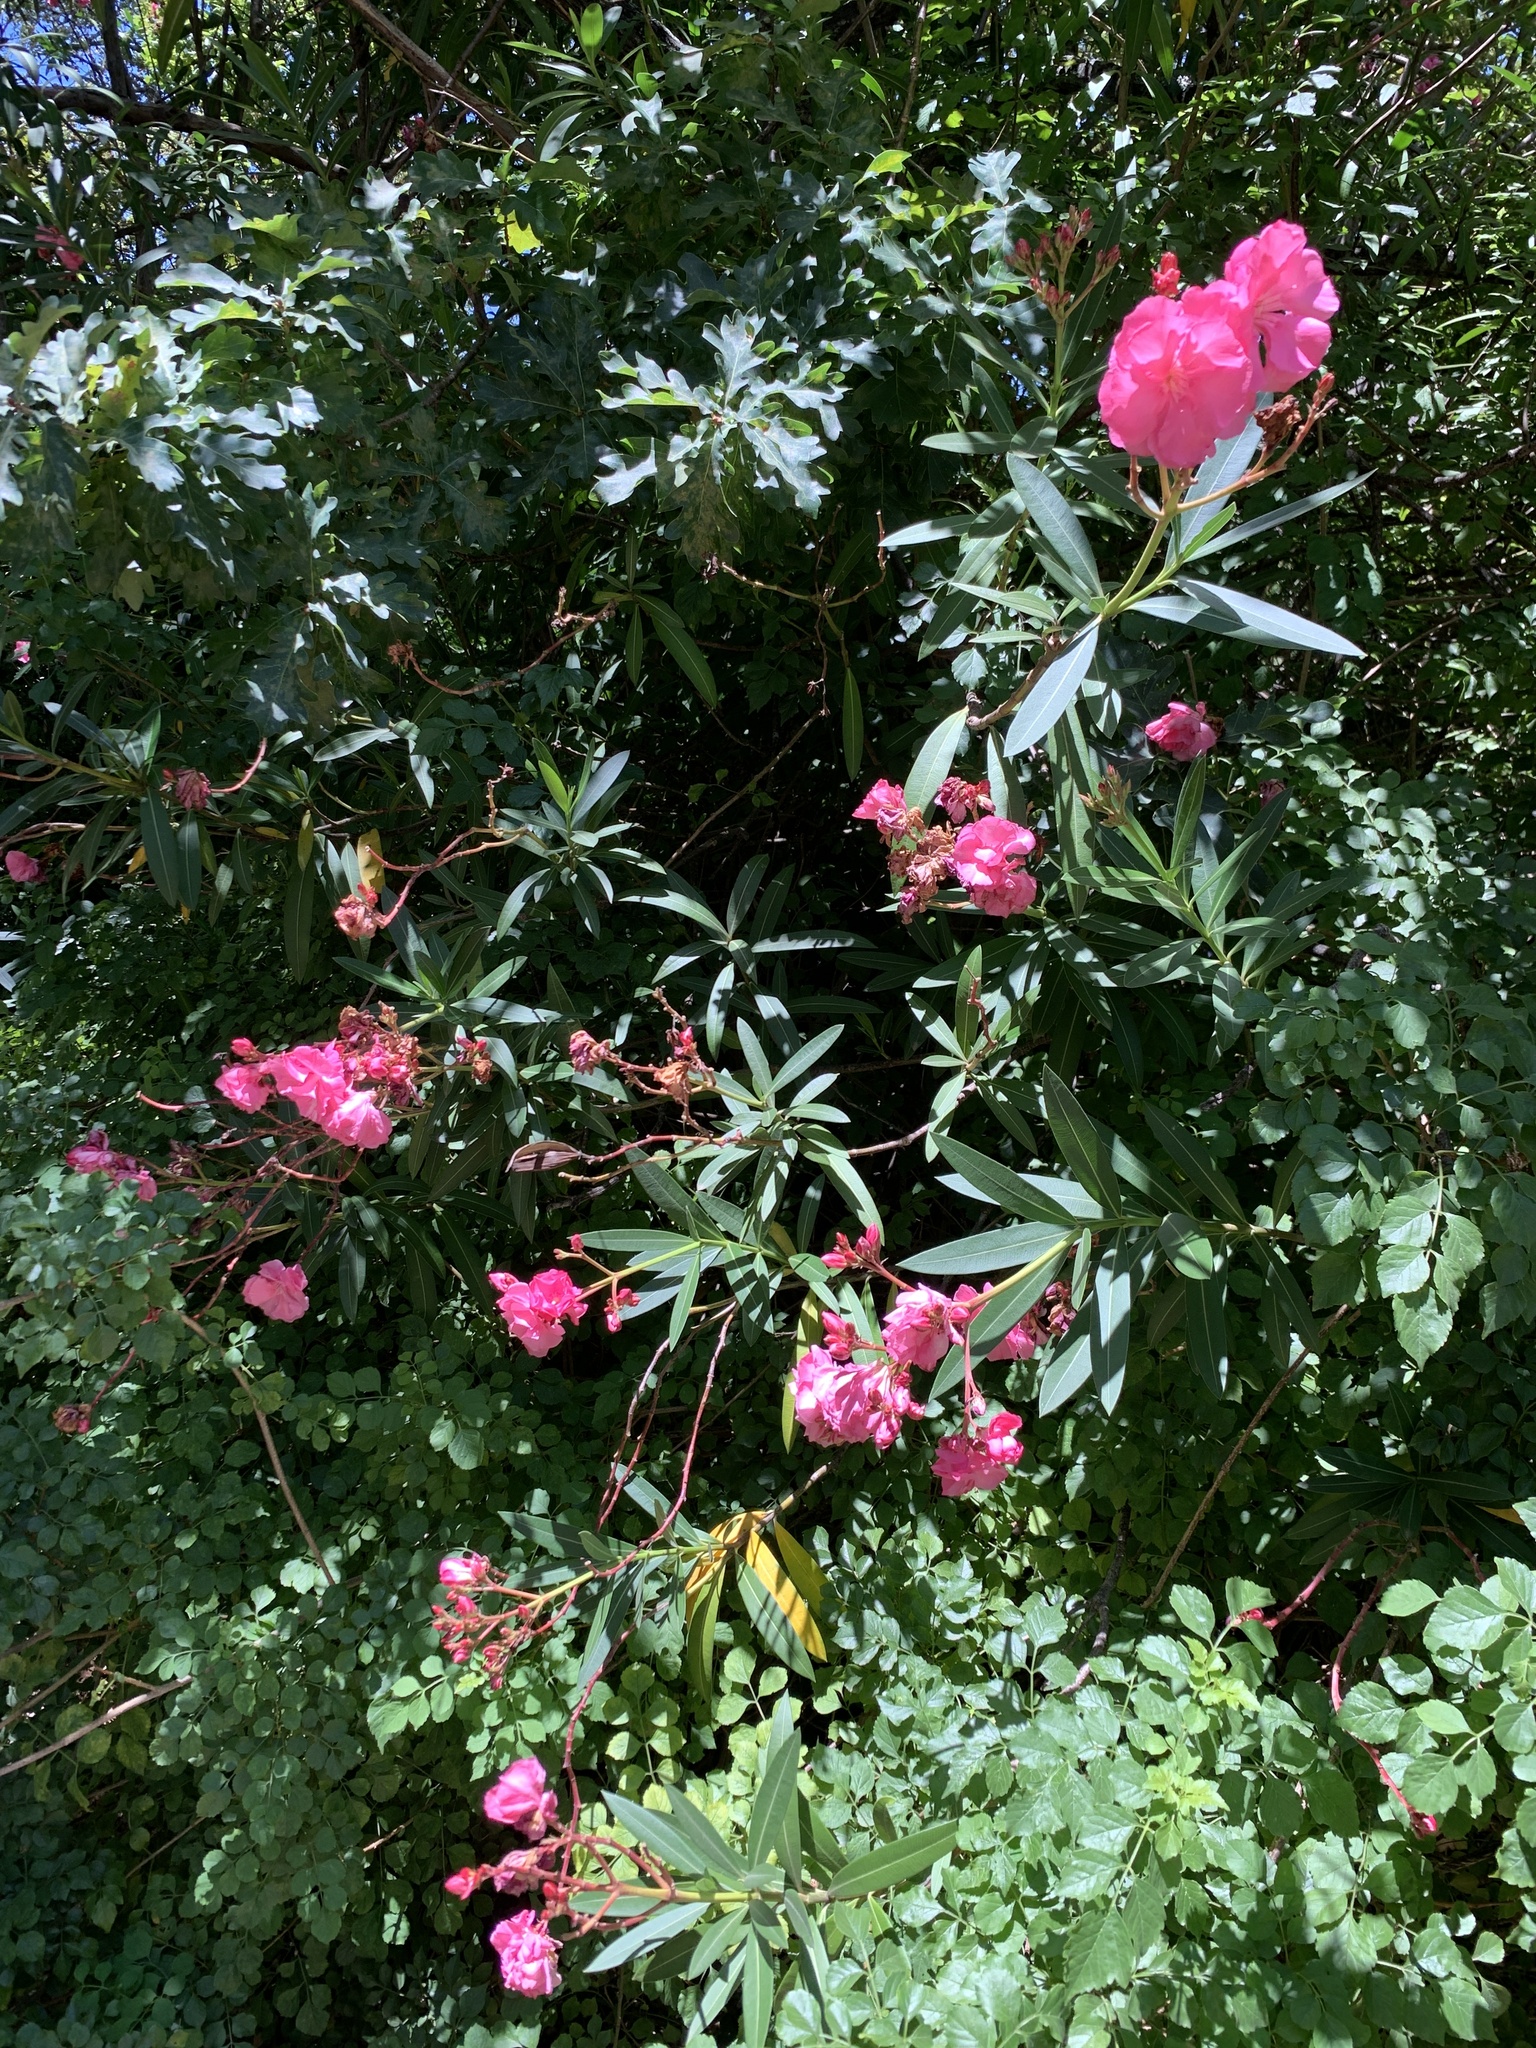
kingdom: Plantae
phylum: Tracheophyta
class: Magnoliopsida
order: Gentianales
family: Apocynaceae
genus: Nerium
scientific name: Nerium oleander
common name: Oleander
